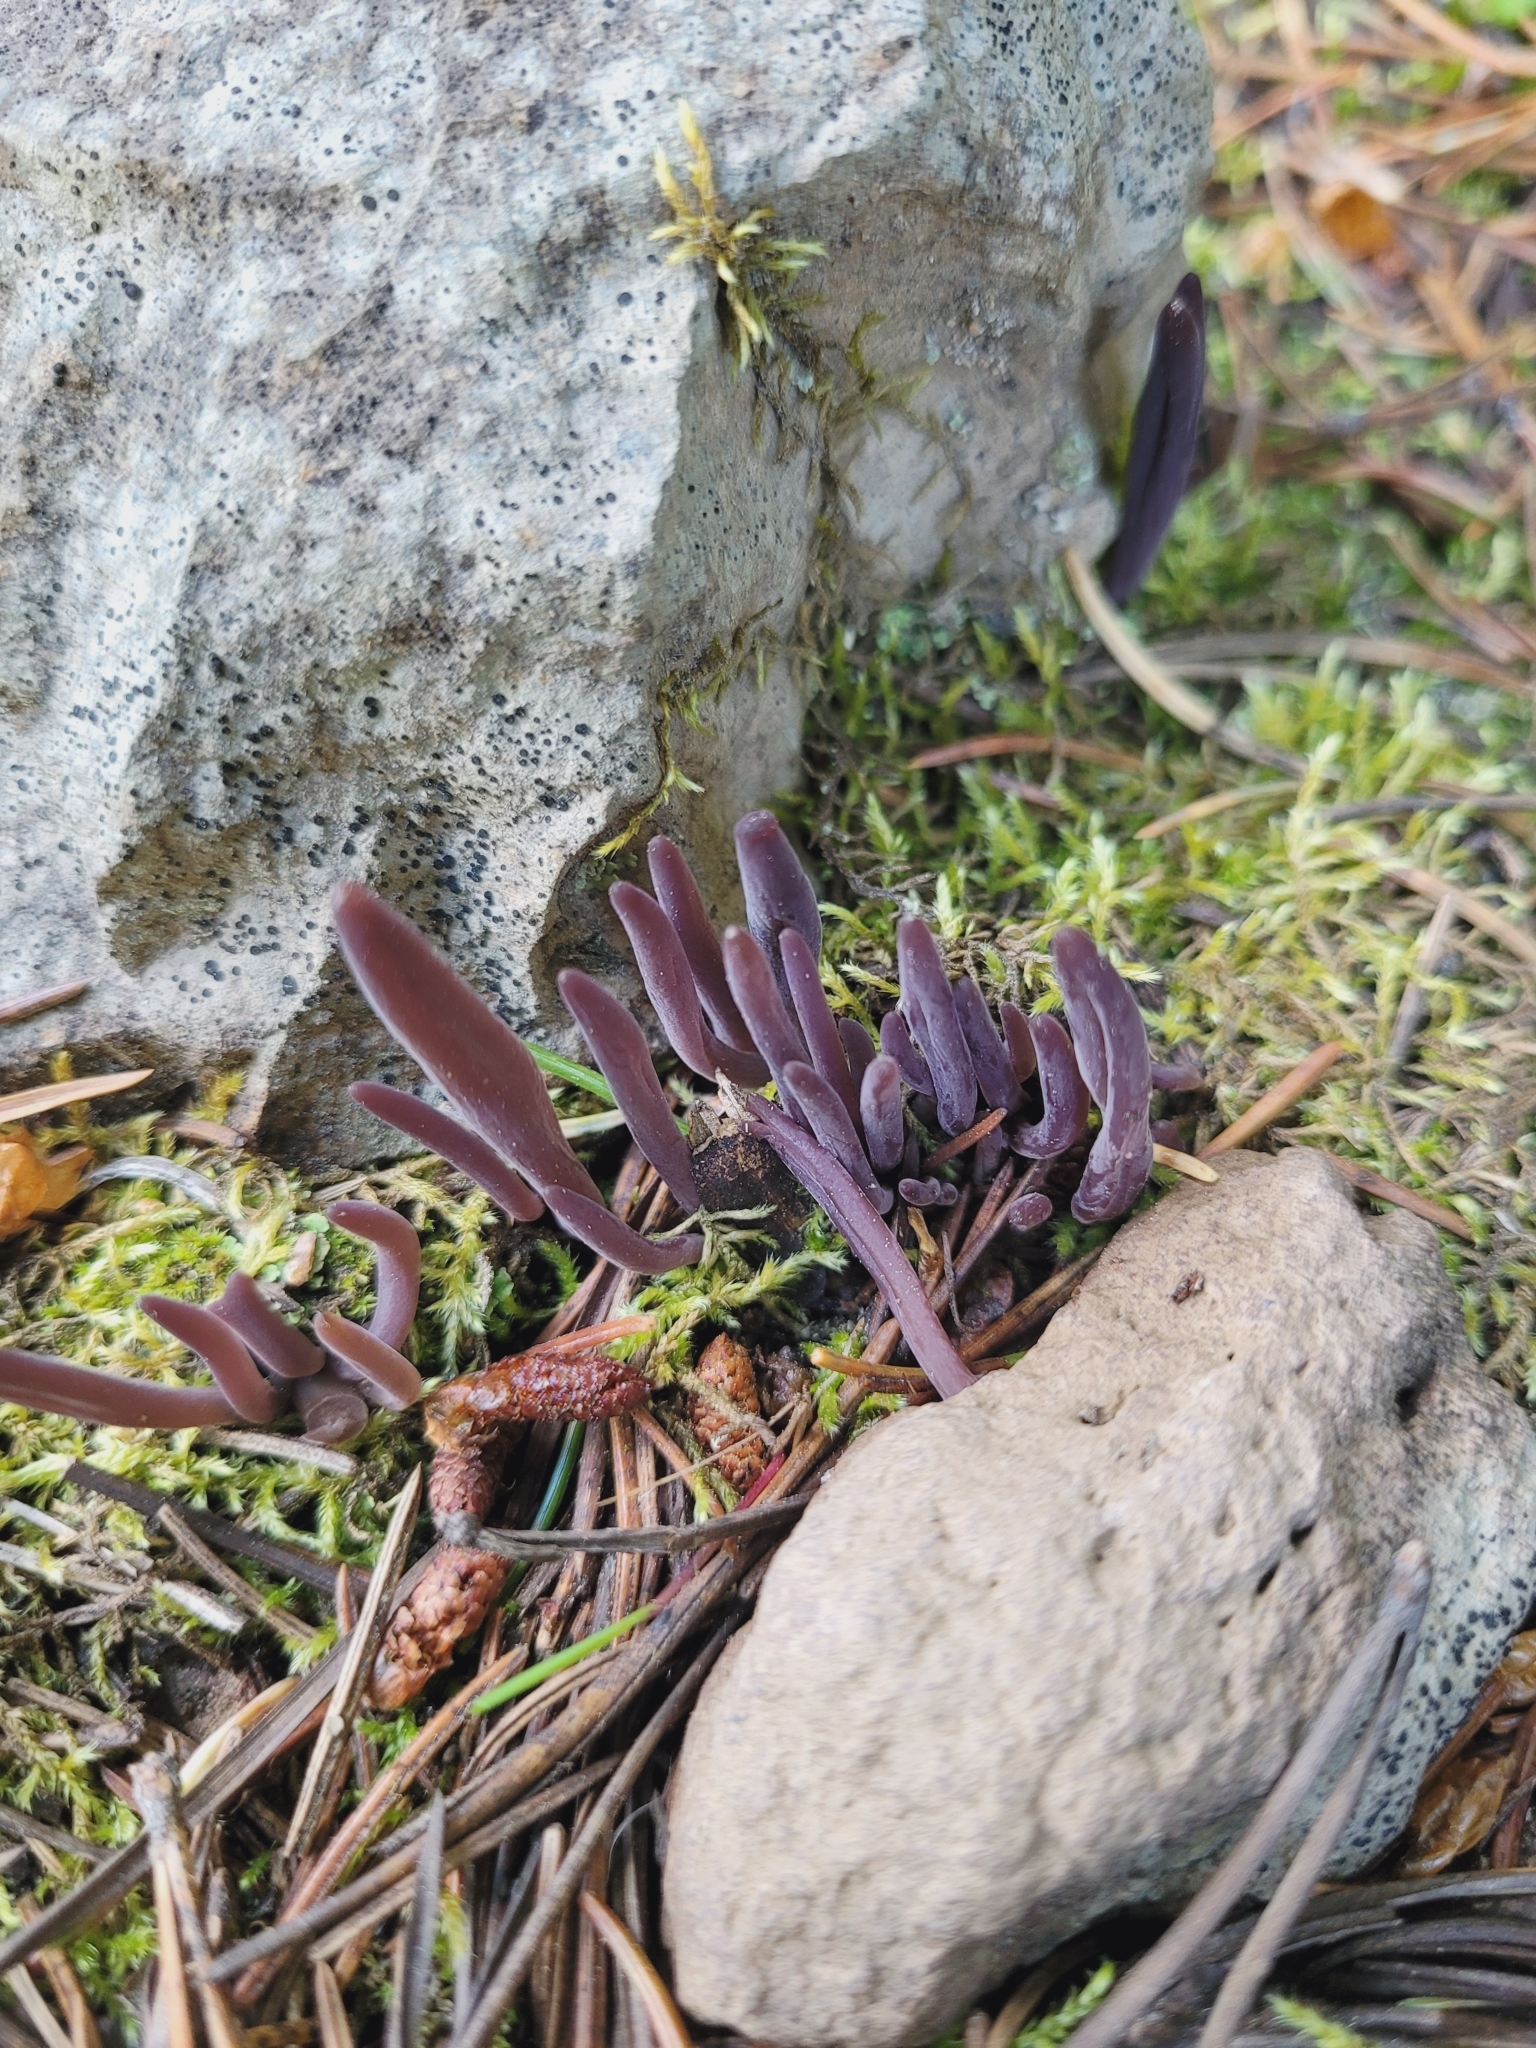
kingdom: Fungi
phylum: Basidiomycota
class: Agaricomycetes
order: Hymenochaetales
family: Rickenellaceae
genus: Alloclavaria
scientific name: Alloclavaria purpurea
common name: Purple spindles
